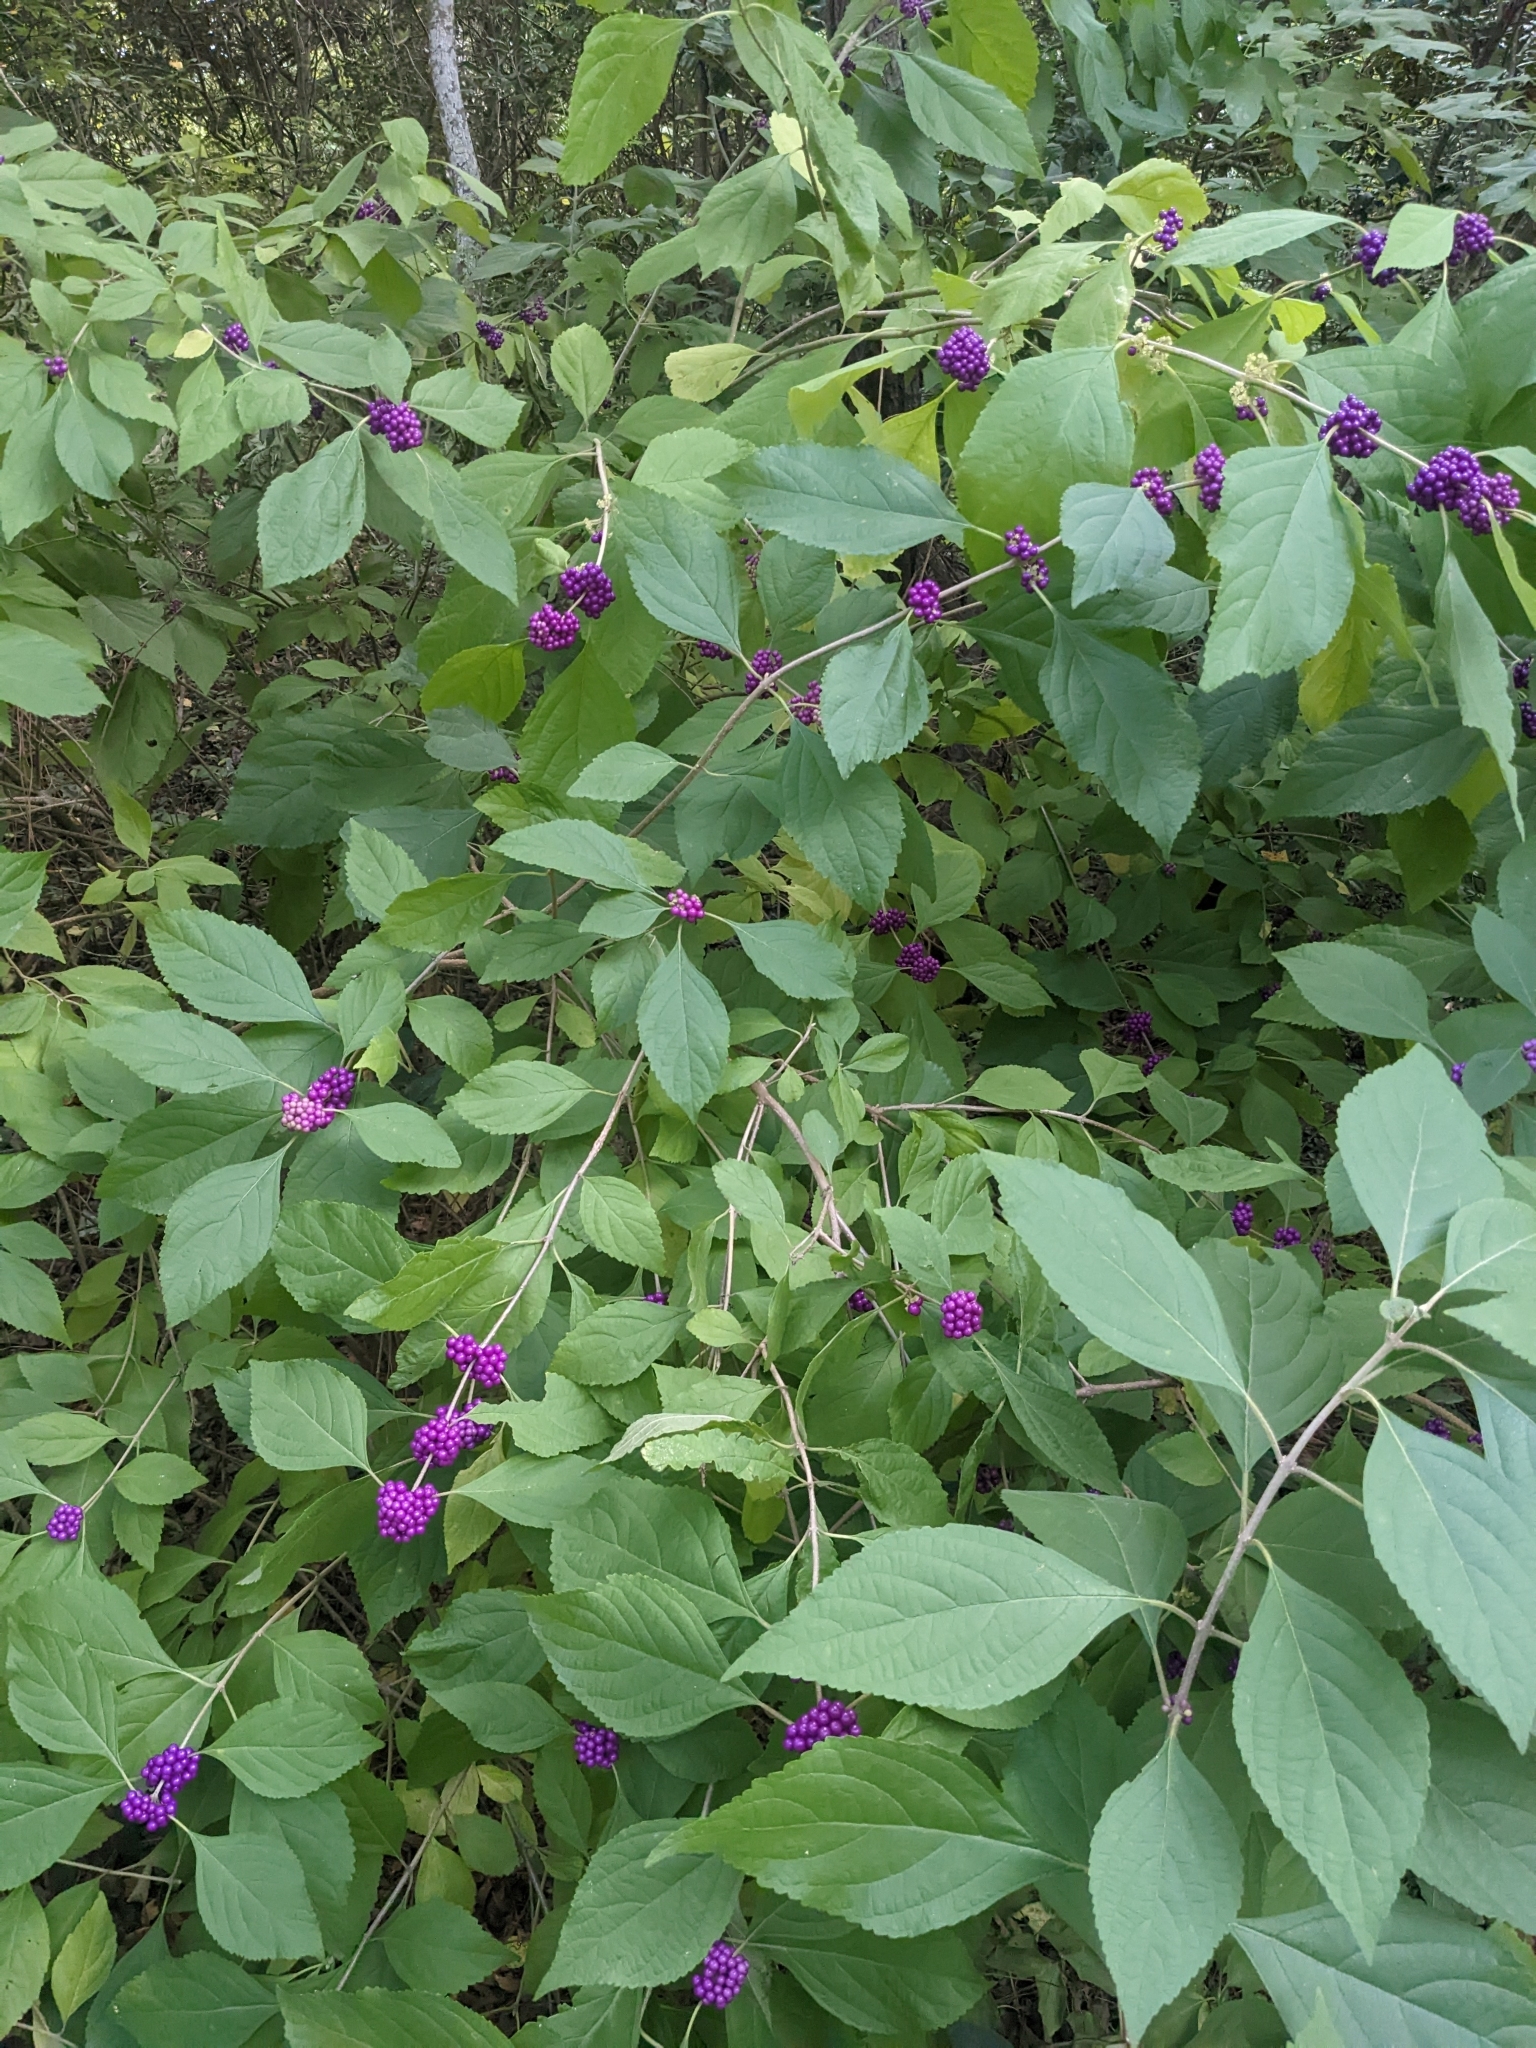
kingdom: Plantae
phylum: Tracheophyta
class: Magnoliopsida
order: Lamiales
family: Lamiaceae
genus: Callicarpa
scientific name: Callicarpa americana
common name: American beautyberry
